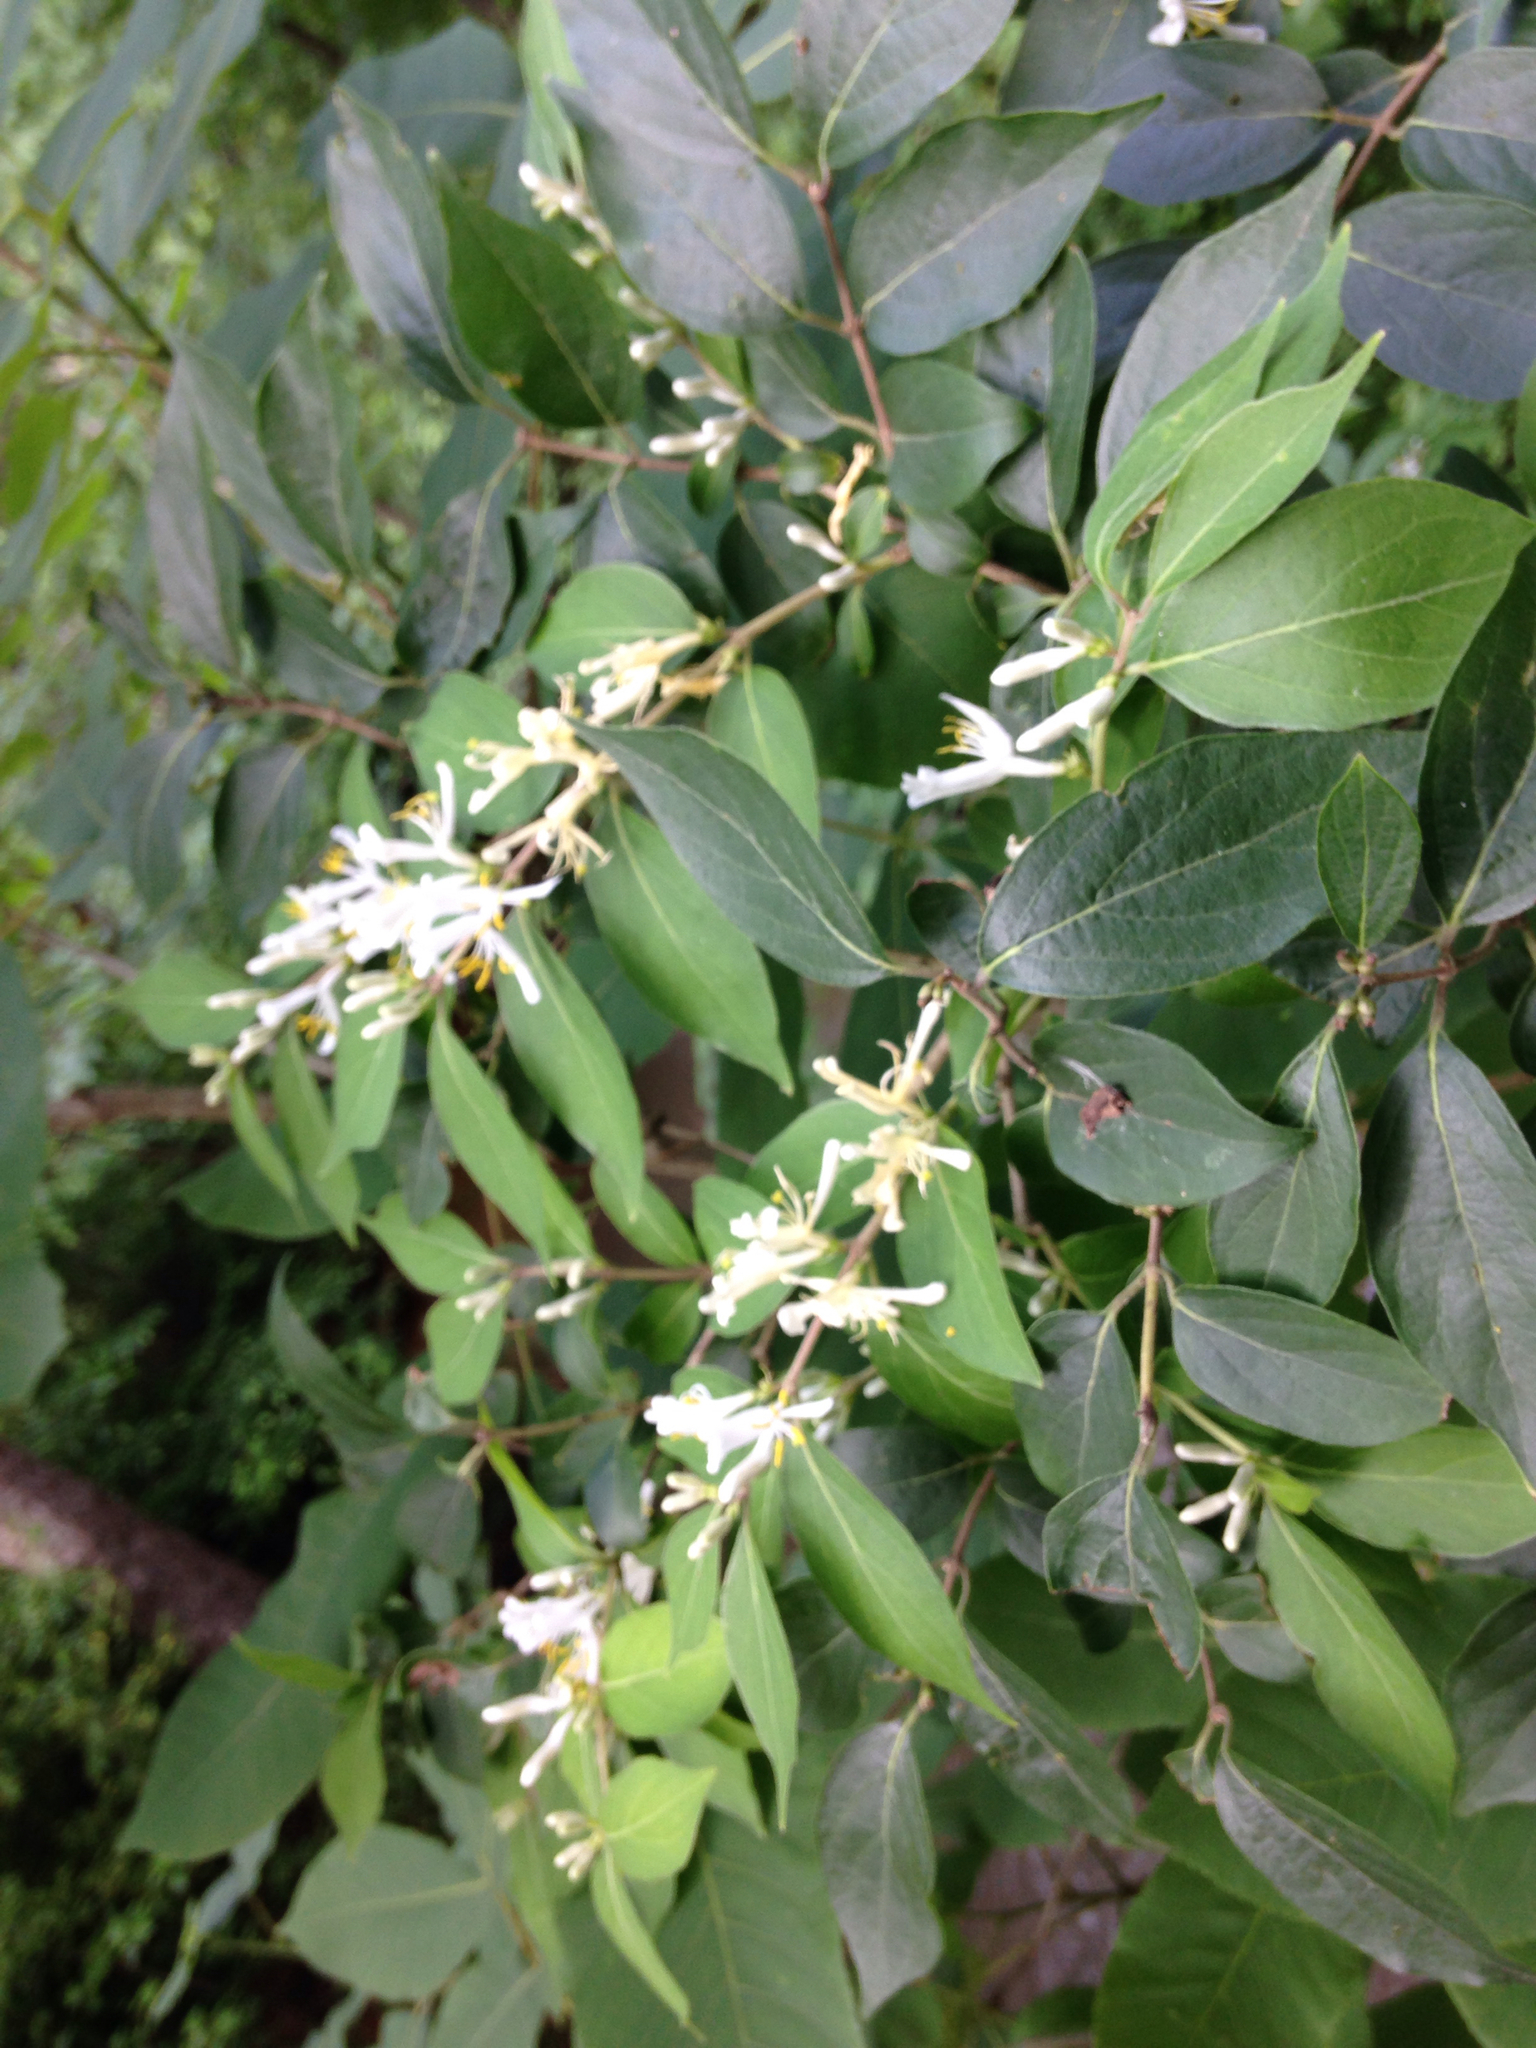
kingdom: Plantae
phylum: Tracheophyta
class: Magnoliopsida
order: Dipsacales
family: Caprifoliaceae
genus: Lonicera
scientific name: Lonicera maackii
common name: Amur honeysuckle
